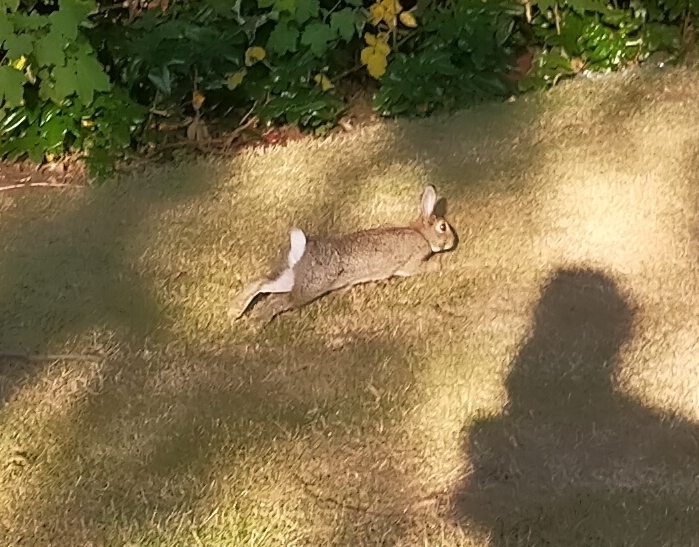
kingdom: Animalia
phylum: Chordata
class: Mammalia
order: Lagomorpha
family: Leporidae
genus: Oryctolagus
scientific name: Oryctolagus cuniculus
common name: European rabbit
